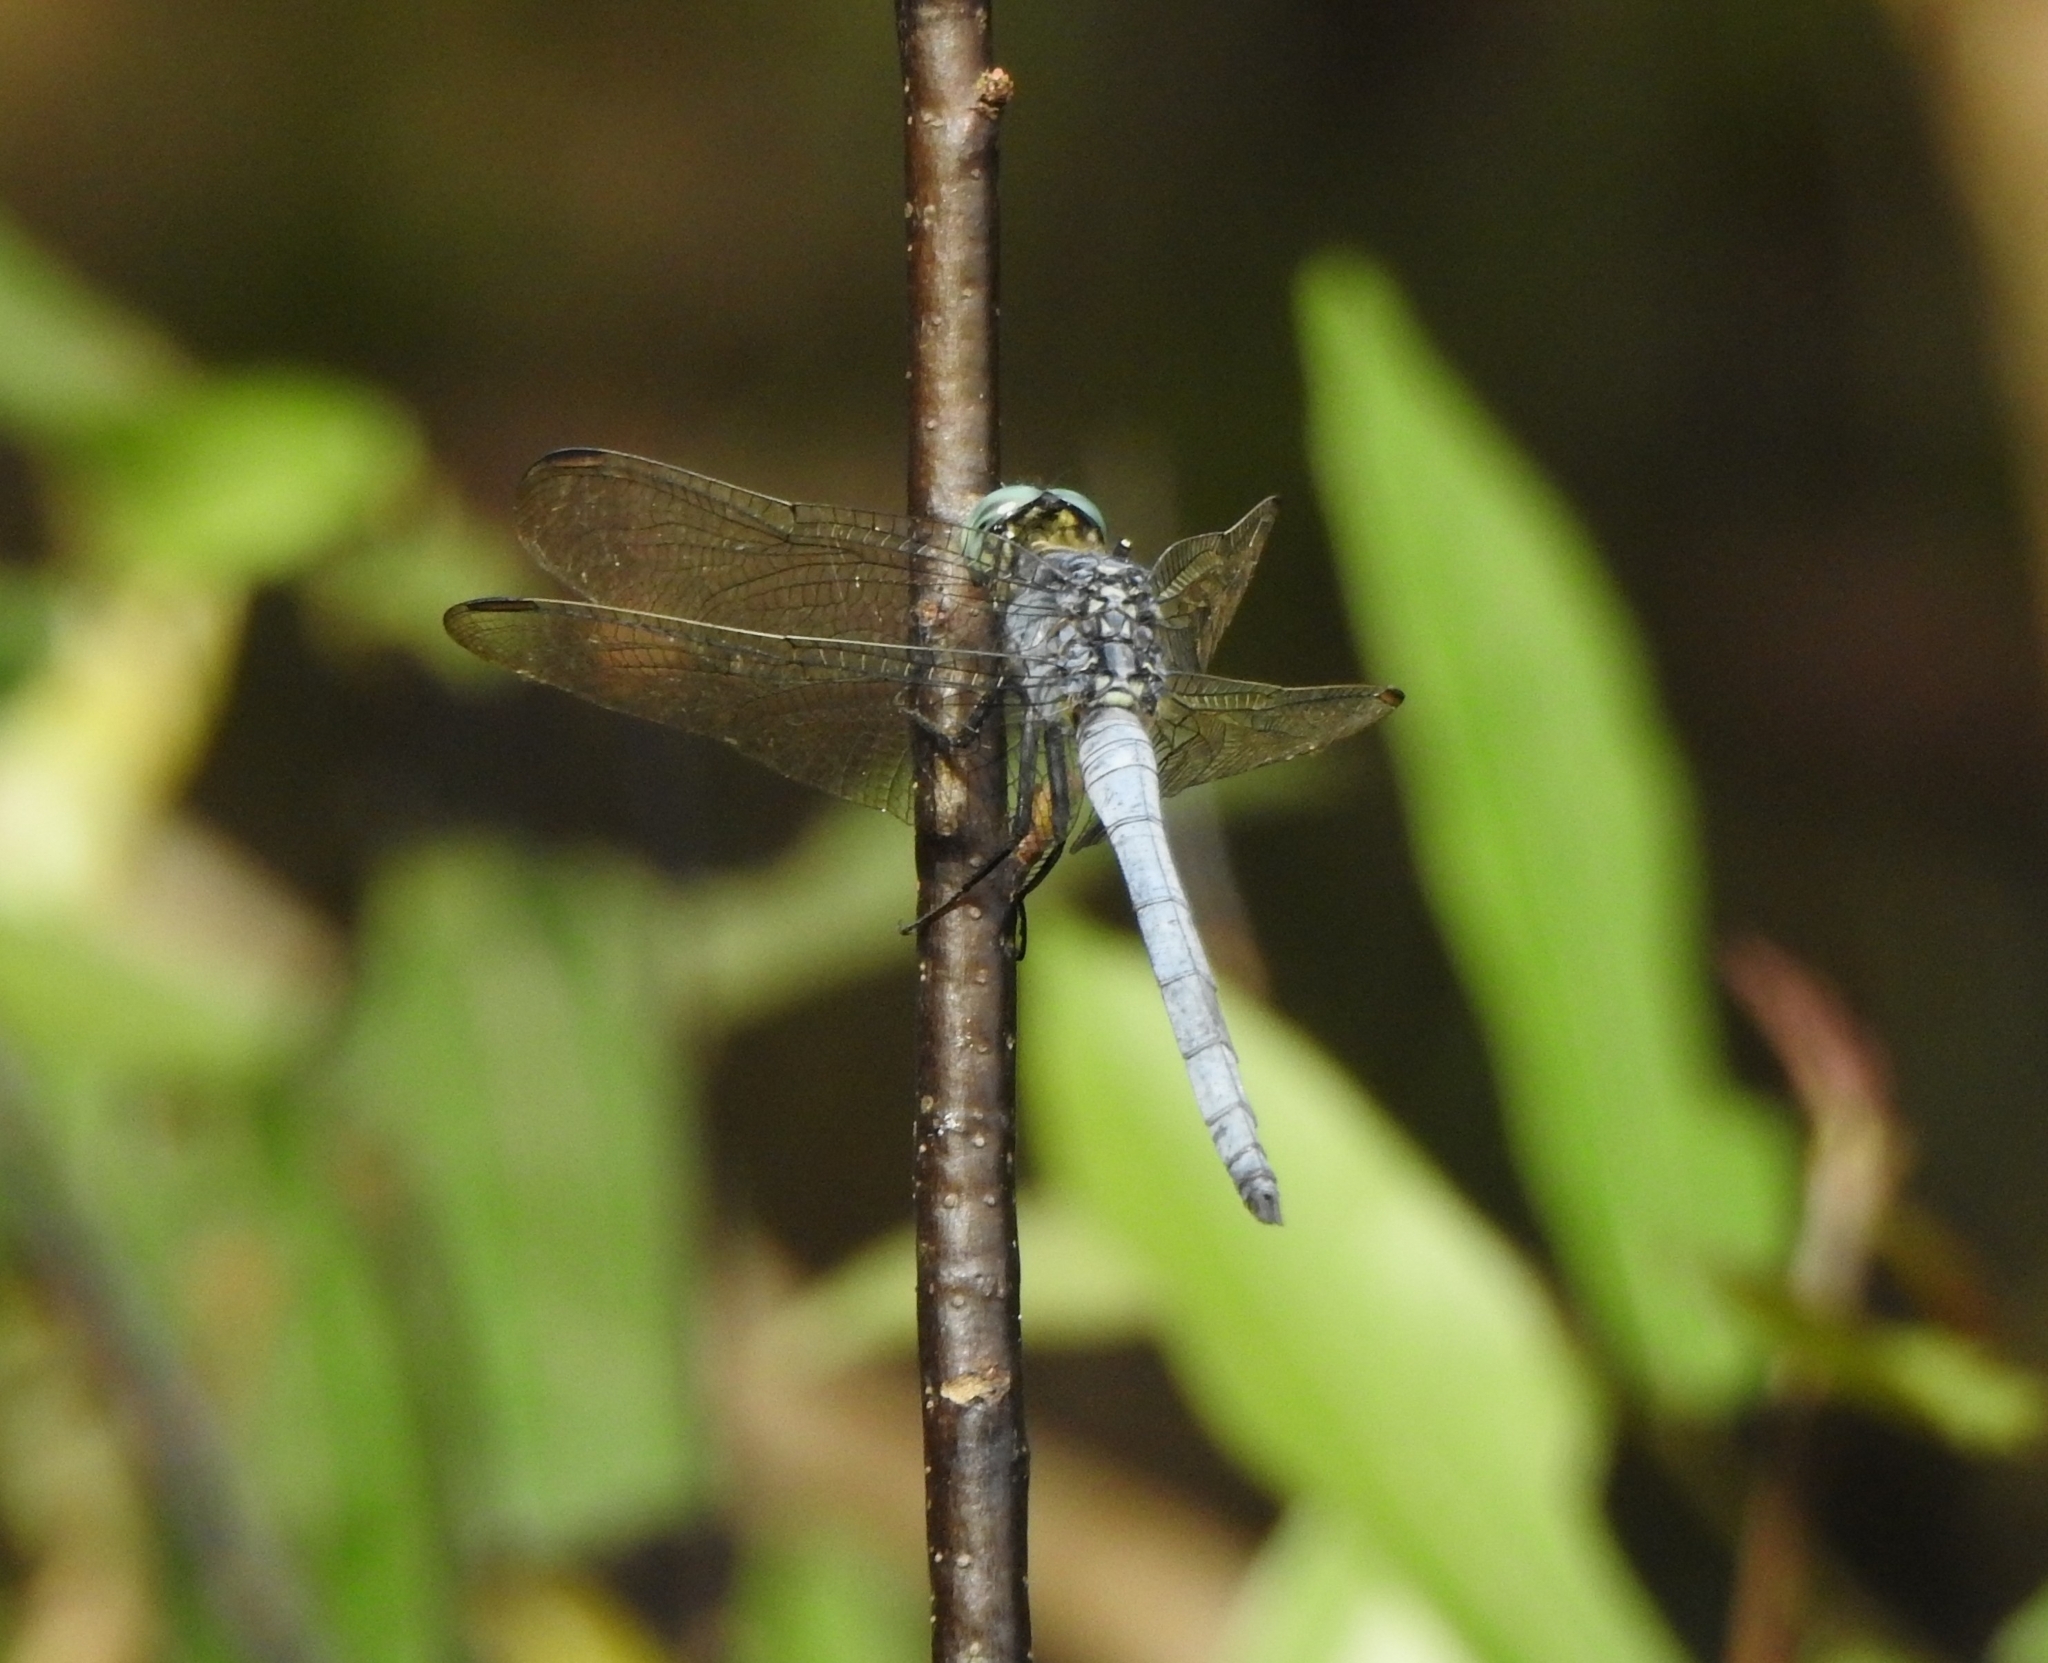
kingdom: Animalia
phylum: Arthropoda
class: Insecta
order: Odonata
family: Libellulidae
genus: Orthetrum
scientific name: Orthetrum luzonicum
